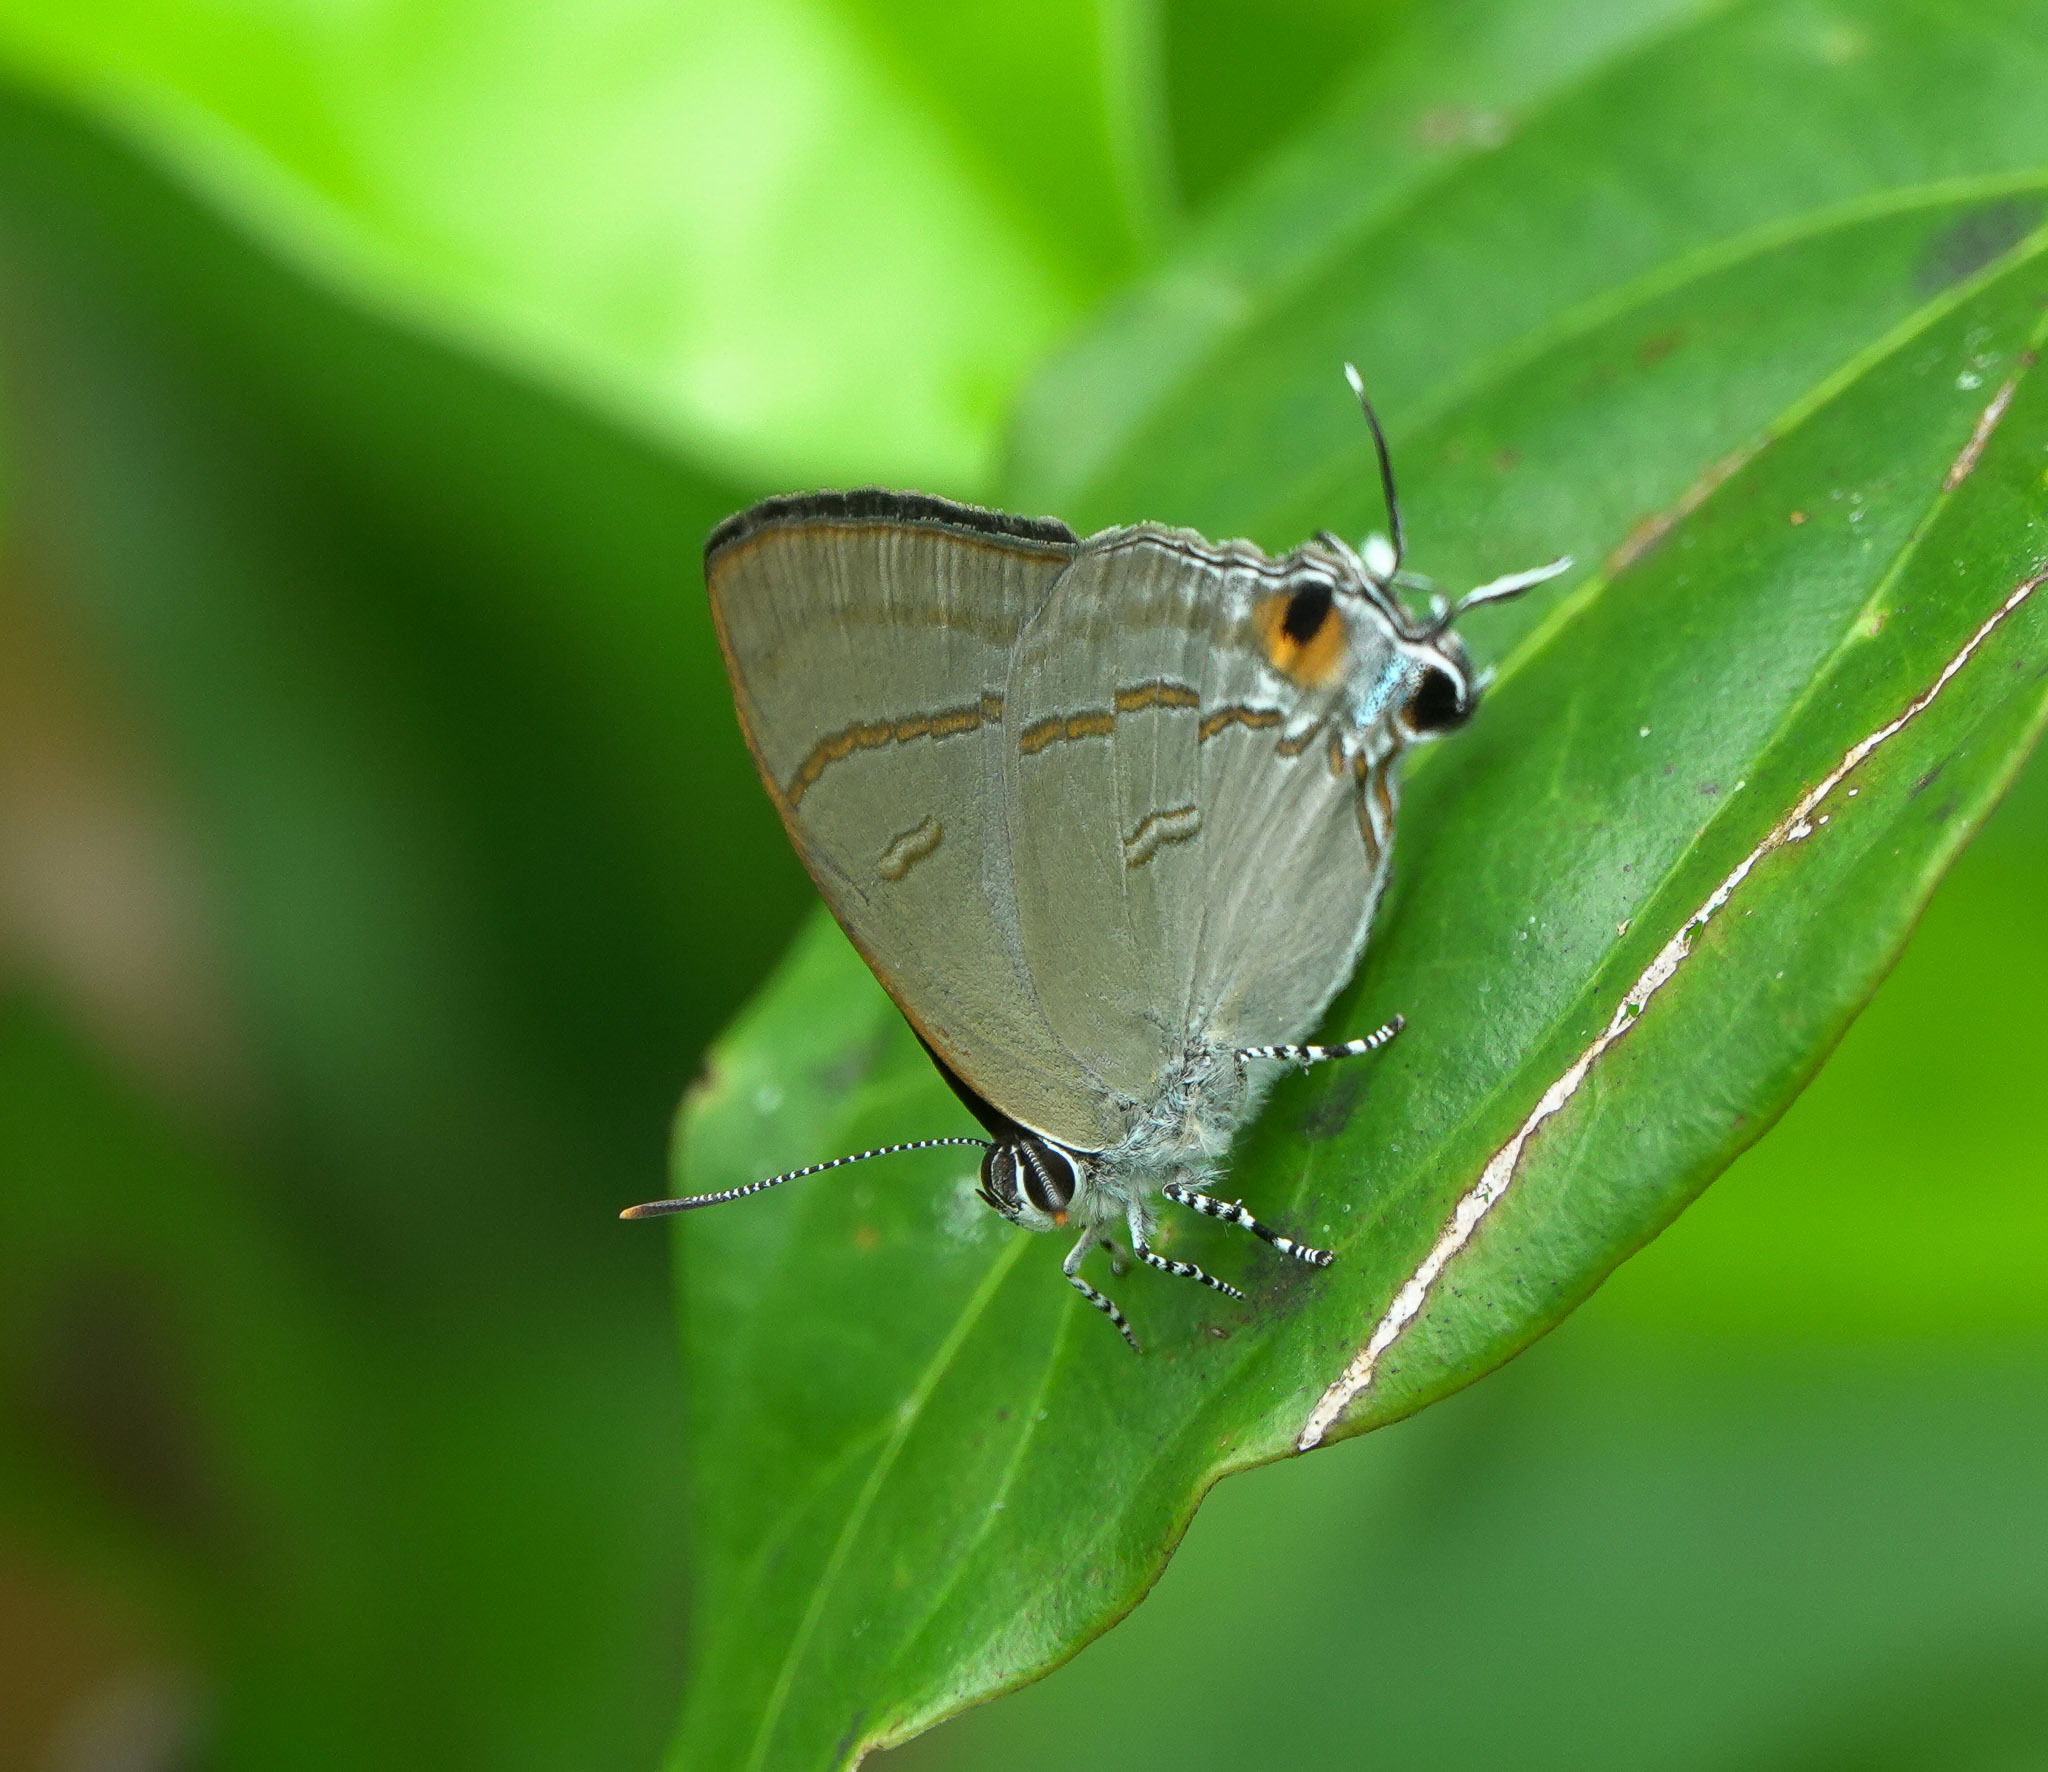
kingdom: Animalia
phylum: Arthropoda
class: Insecta
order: Lepidoptera
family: Lycaenidae
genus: Hypolycaena
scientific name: Hypolycaena erylus
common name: Common tit
